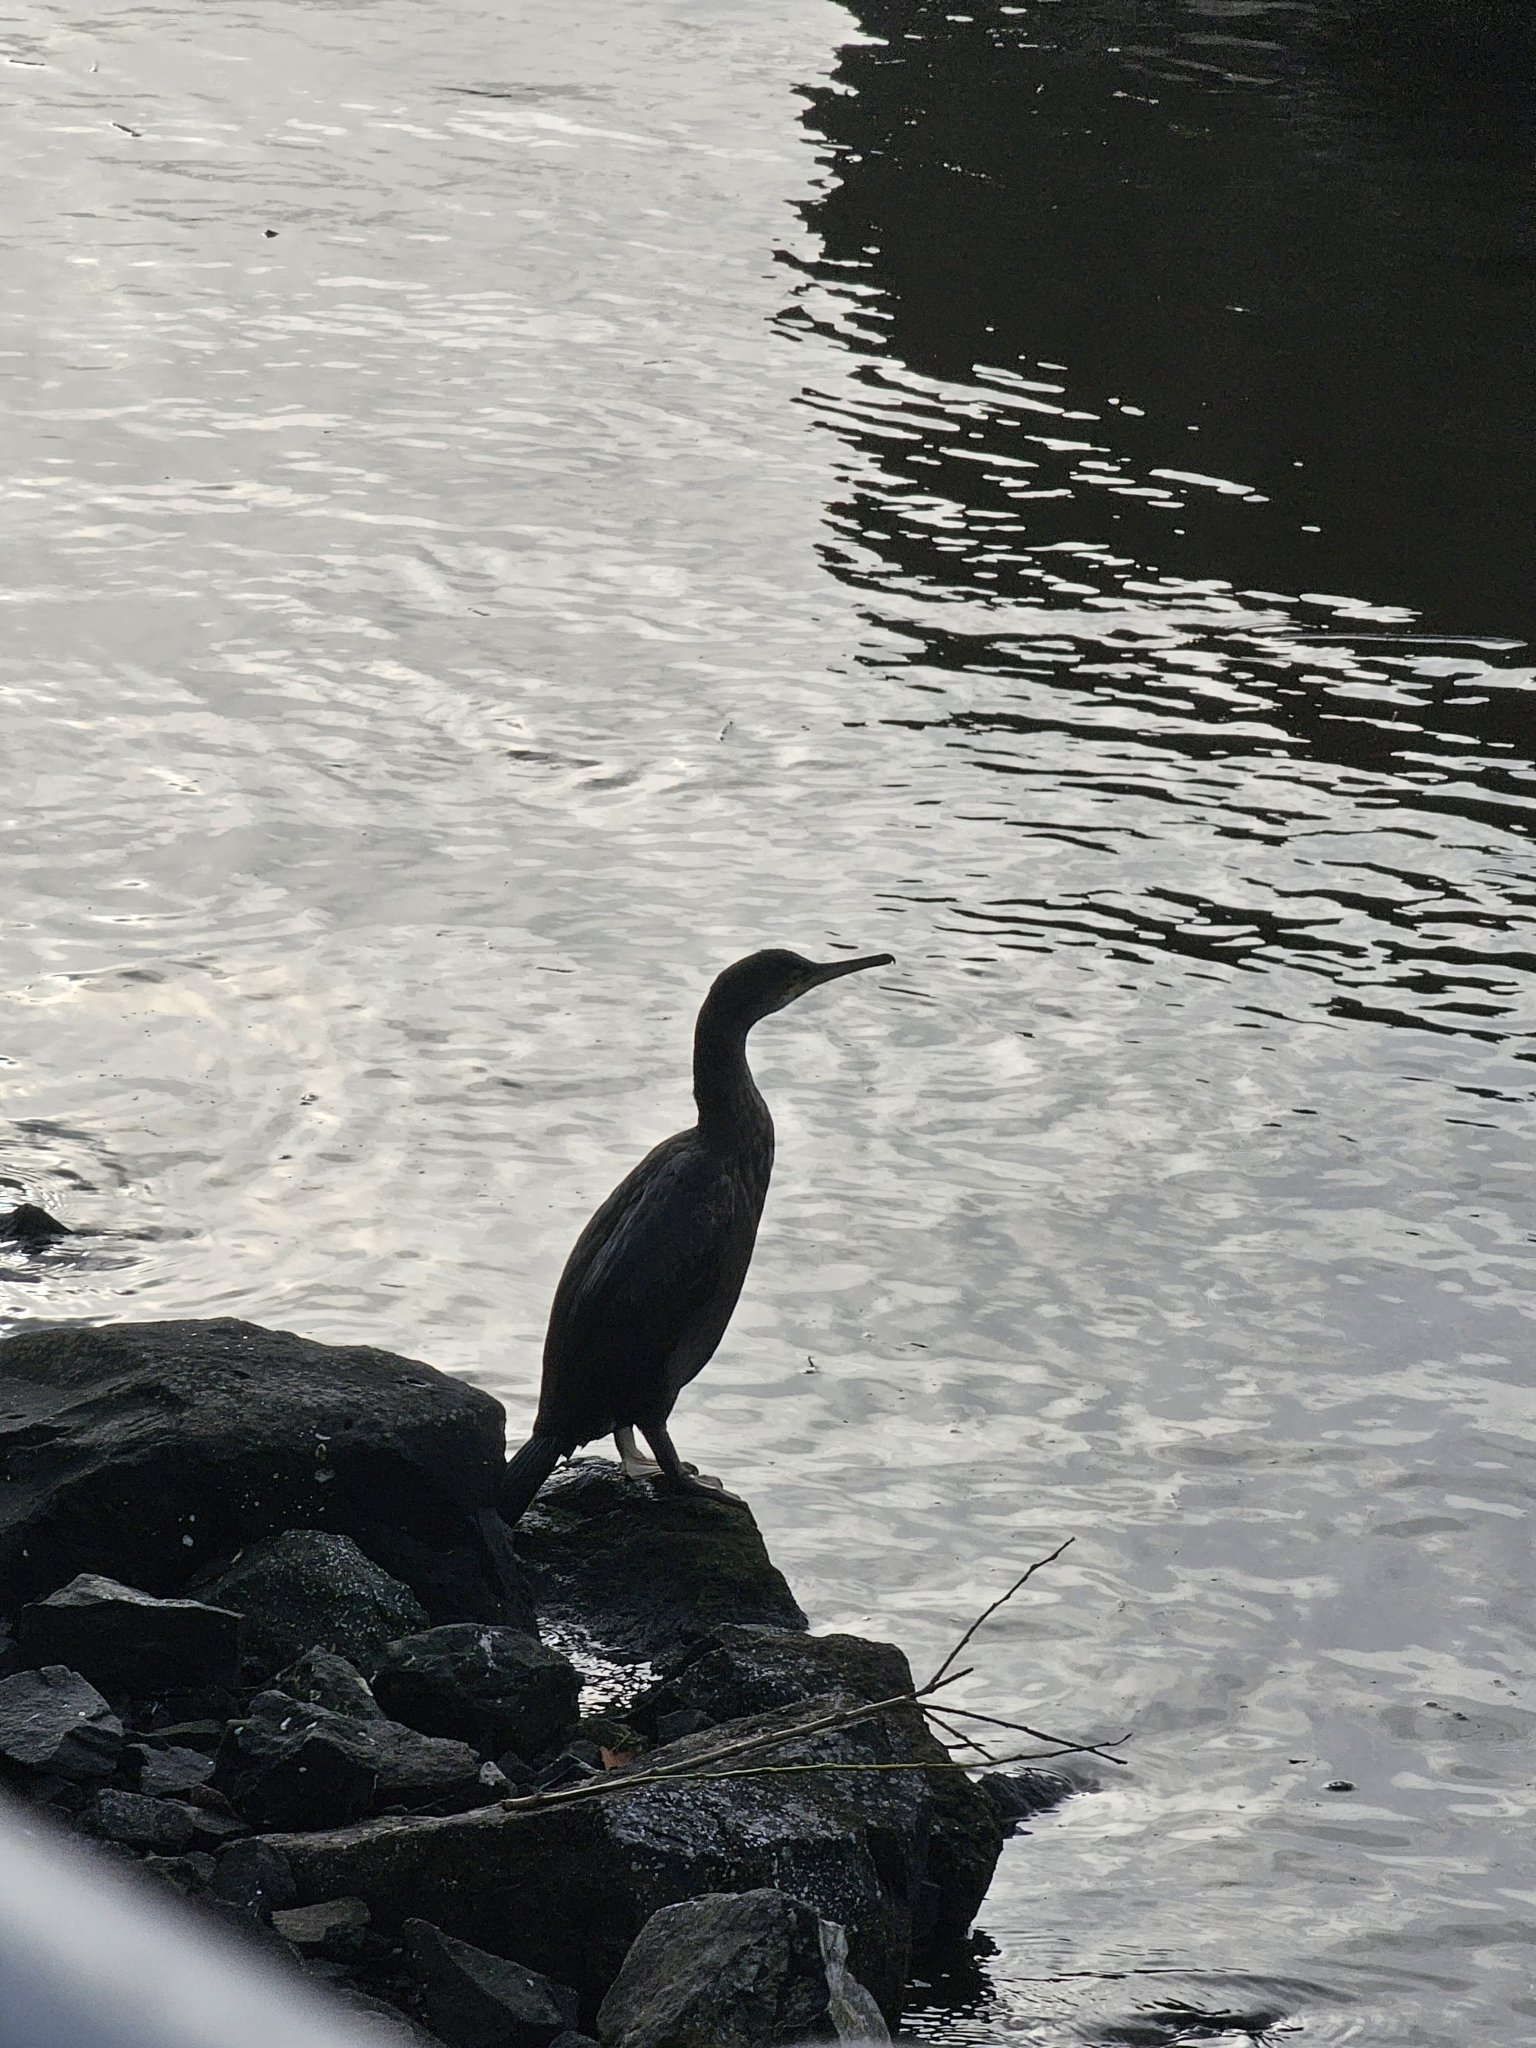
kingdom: Animalia
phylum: Chordata
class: Aves
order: Suliformes
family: Phalacrocoracidae
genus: Phalacrocorax
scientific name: Phalacrocorax aristotelis
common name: European shag
